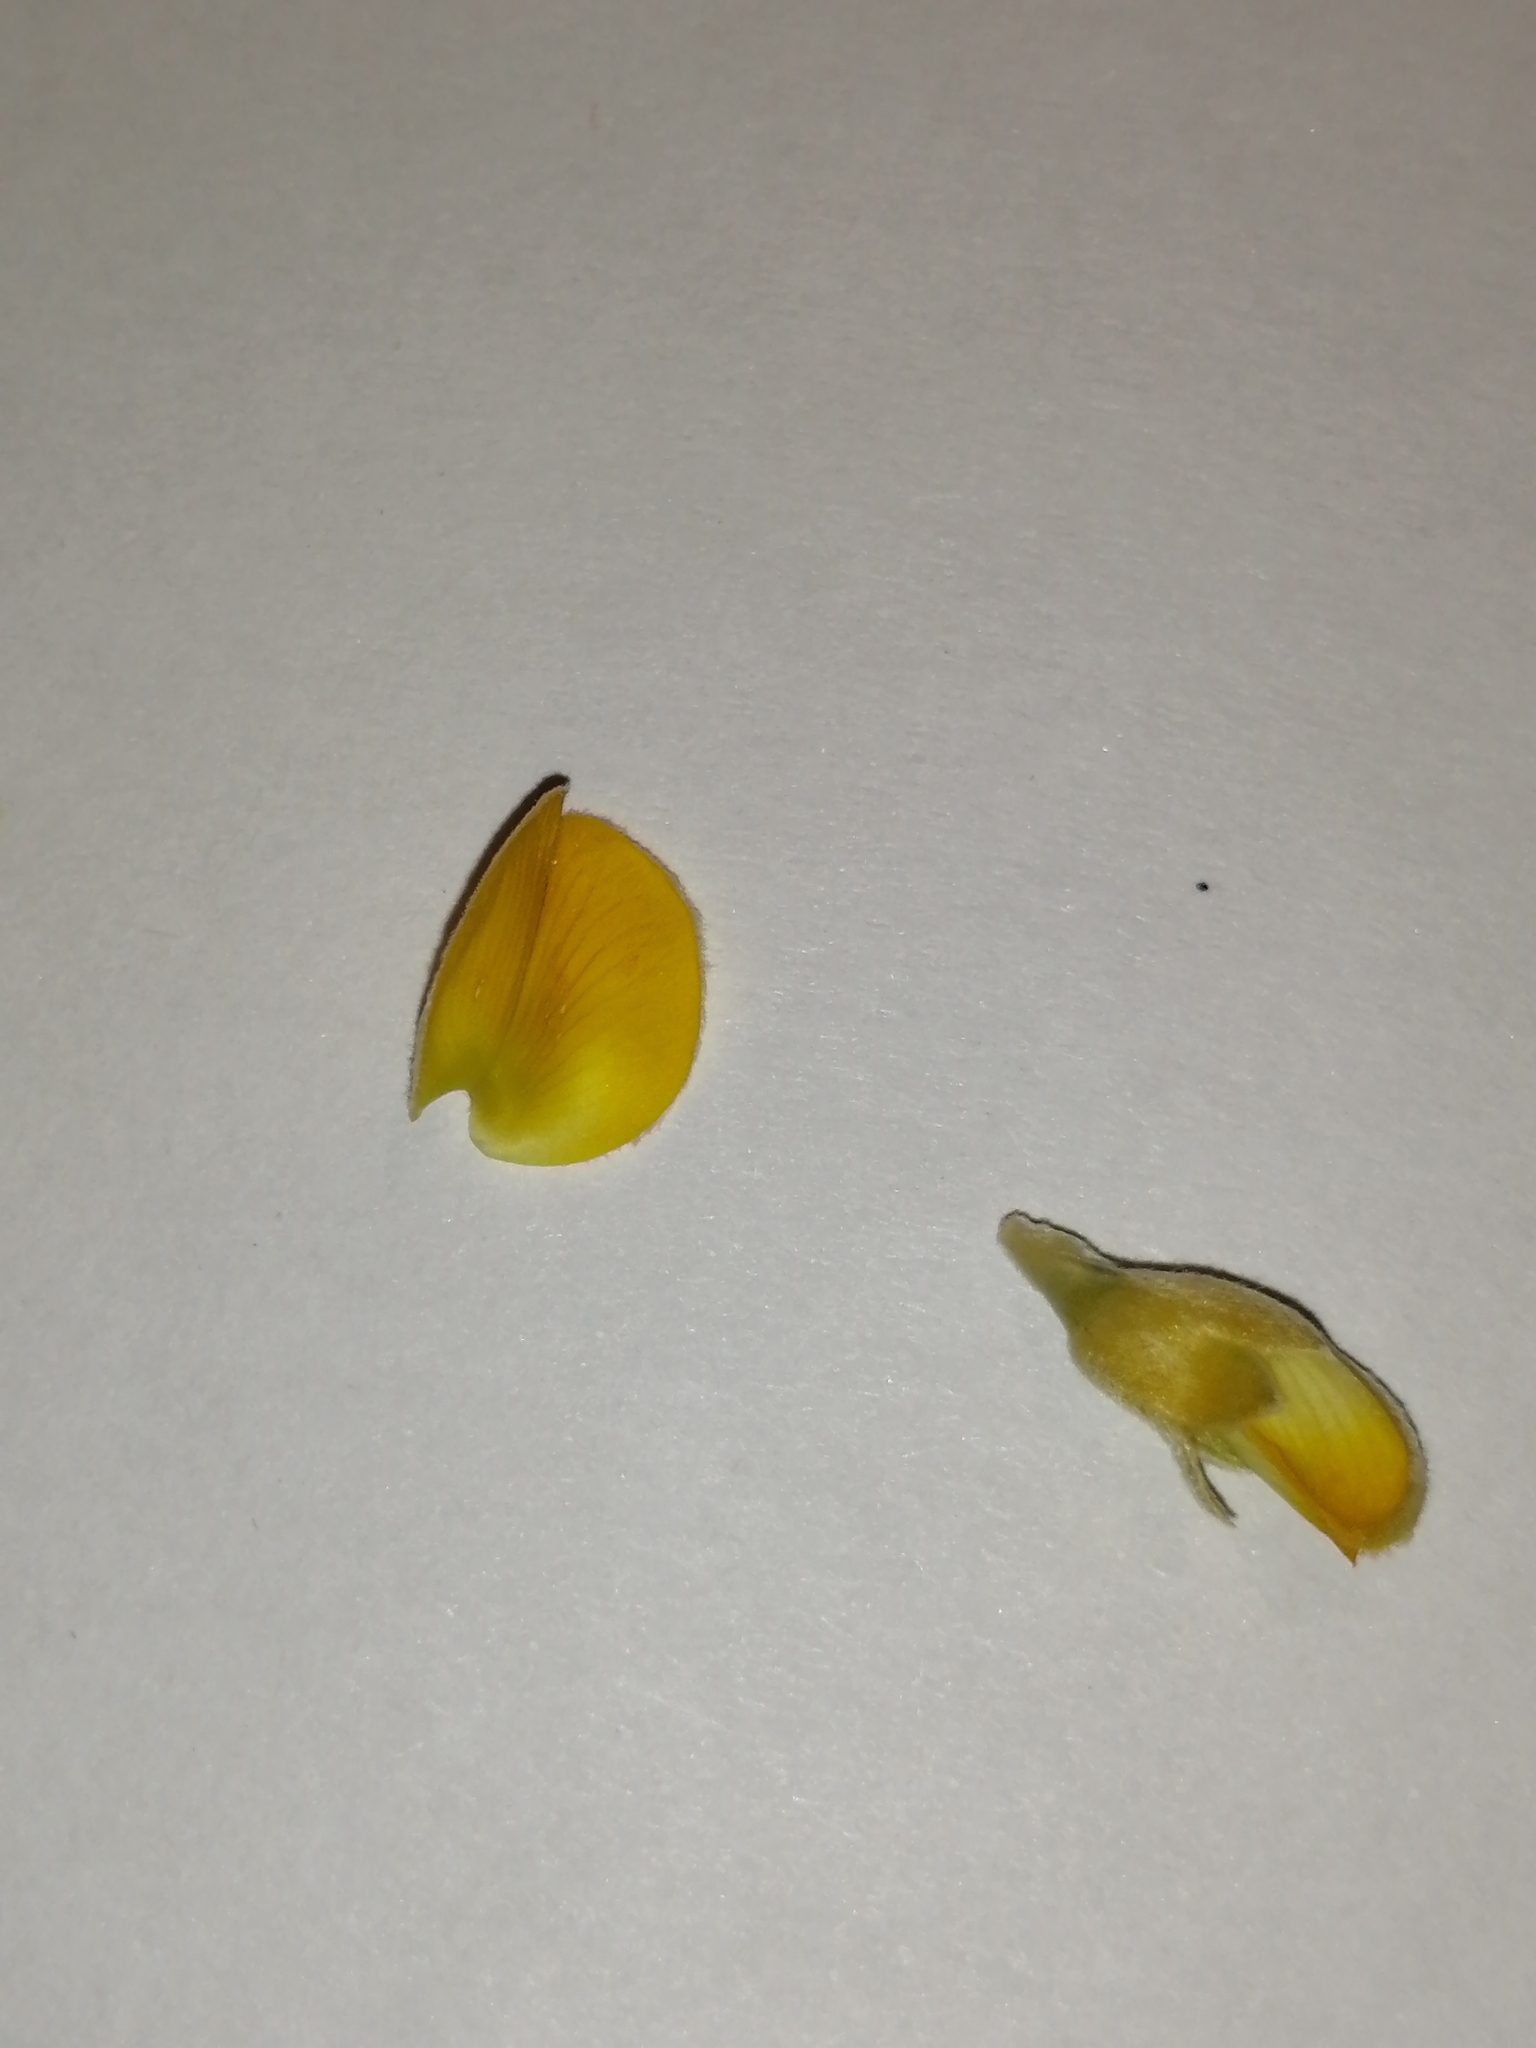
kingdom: Plantae
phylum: Tracheophyta
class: Magnoliopsida
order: Fabales
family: Fabaceae
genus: Aspalathus
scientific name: Aspalathus rugosa
